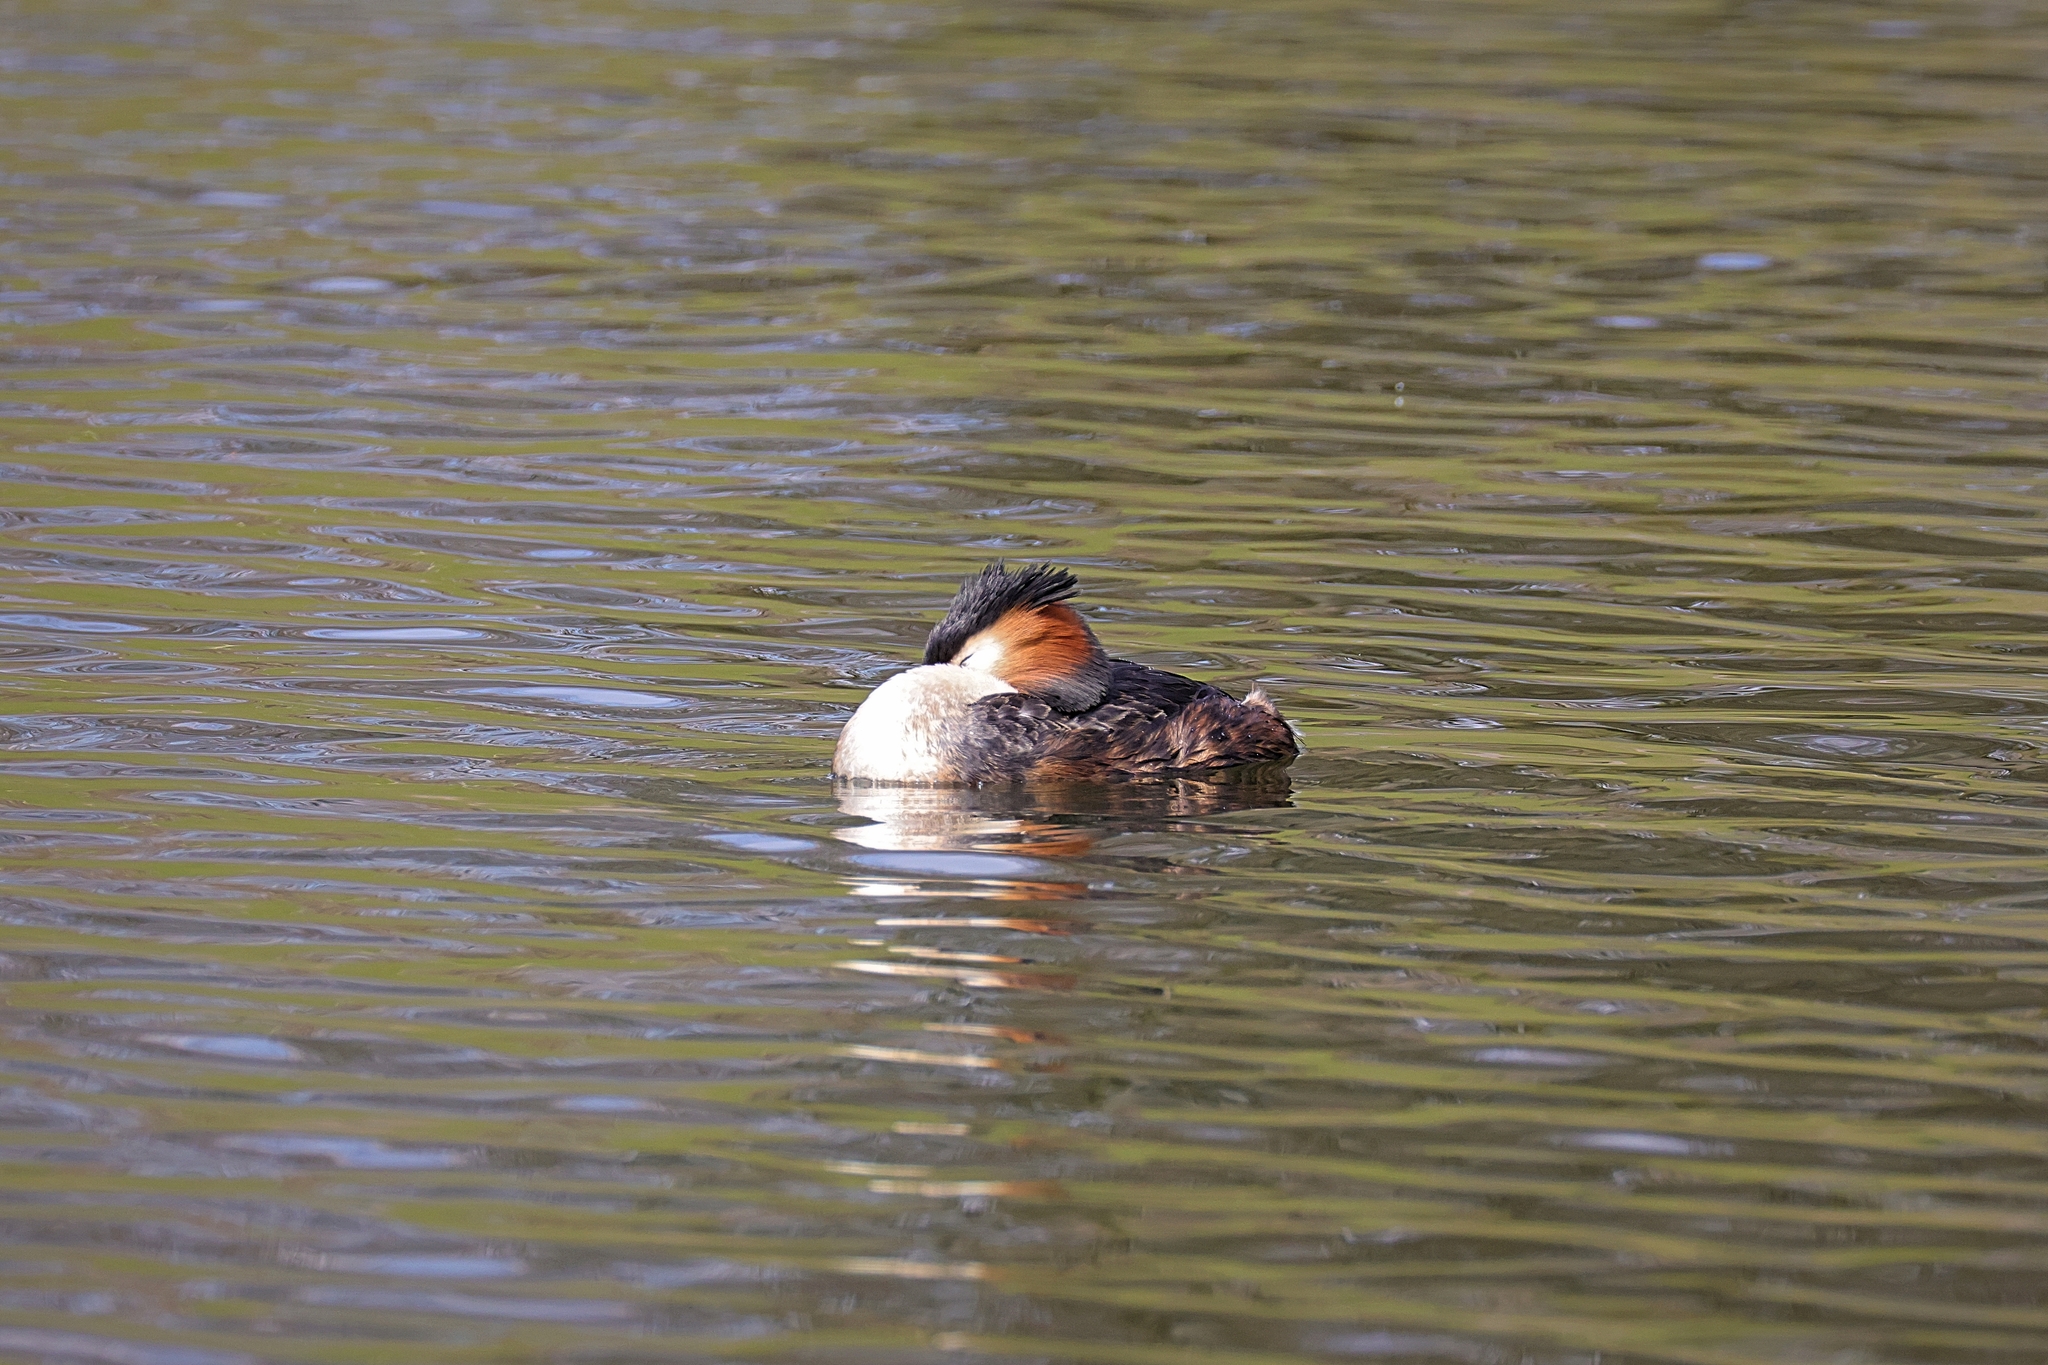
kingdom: Animalia
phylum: Chordata
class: Aves
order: Podicipediformes
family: Podicipedidae
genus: Podiceps
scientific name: Podiceps cristatus
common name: Great crested grebe
